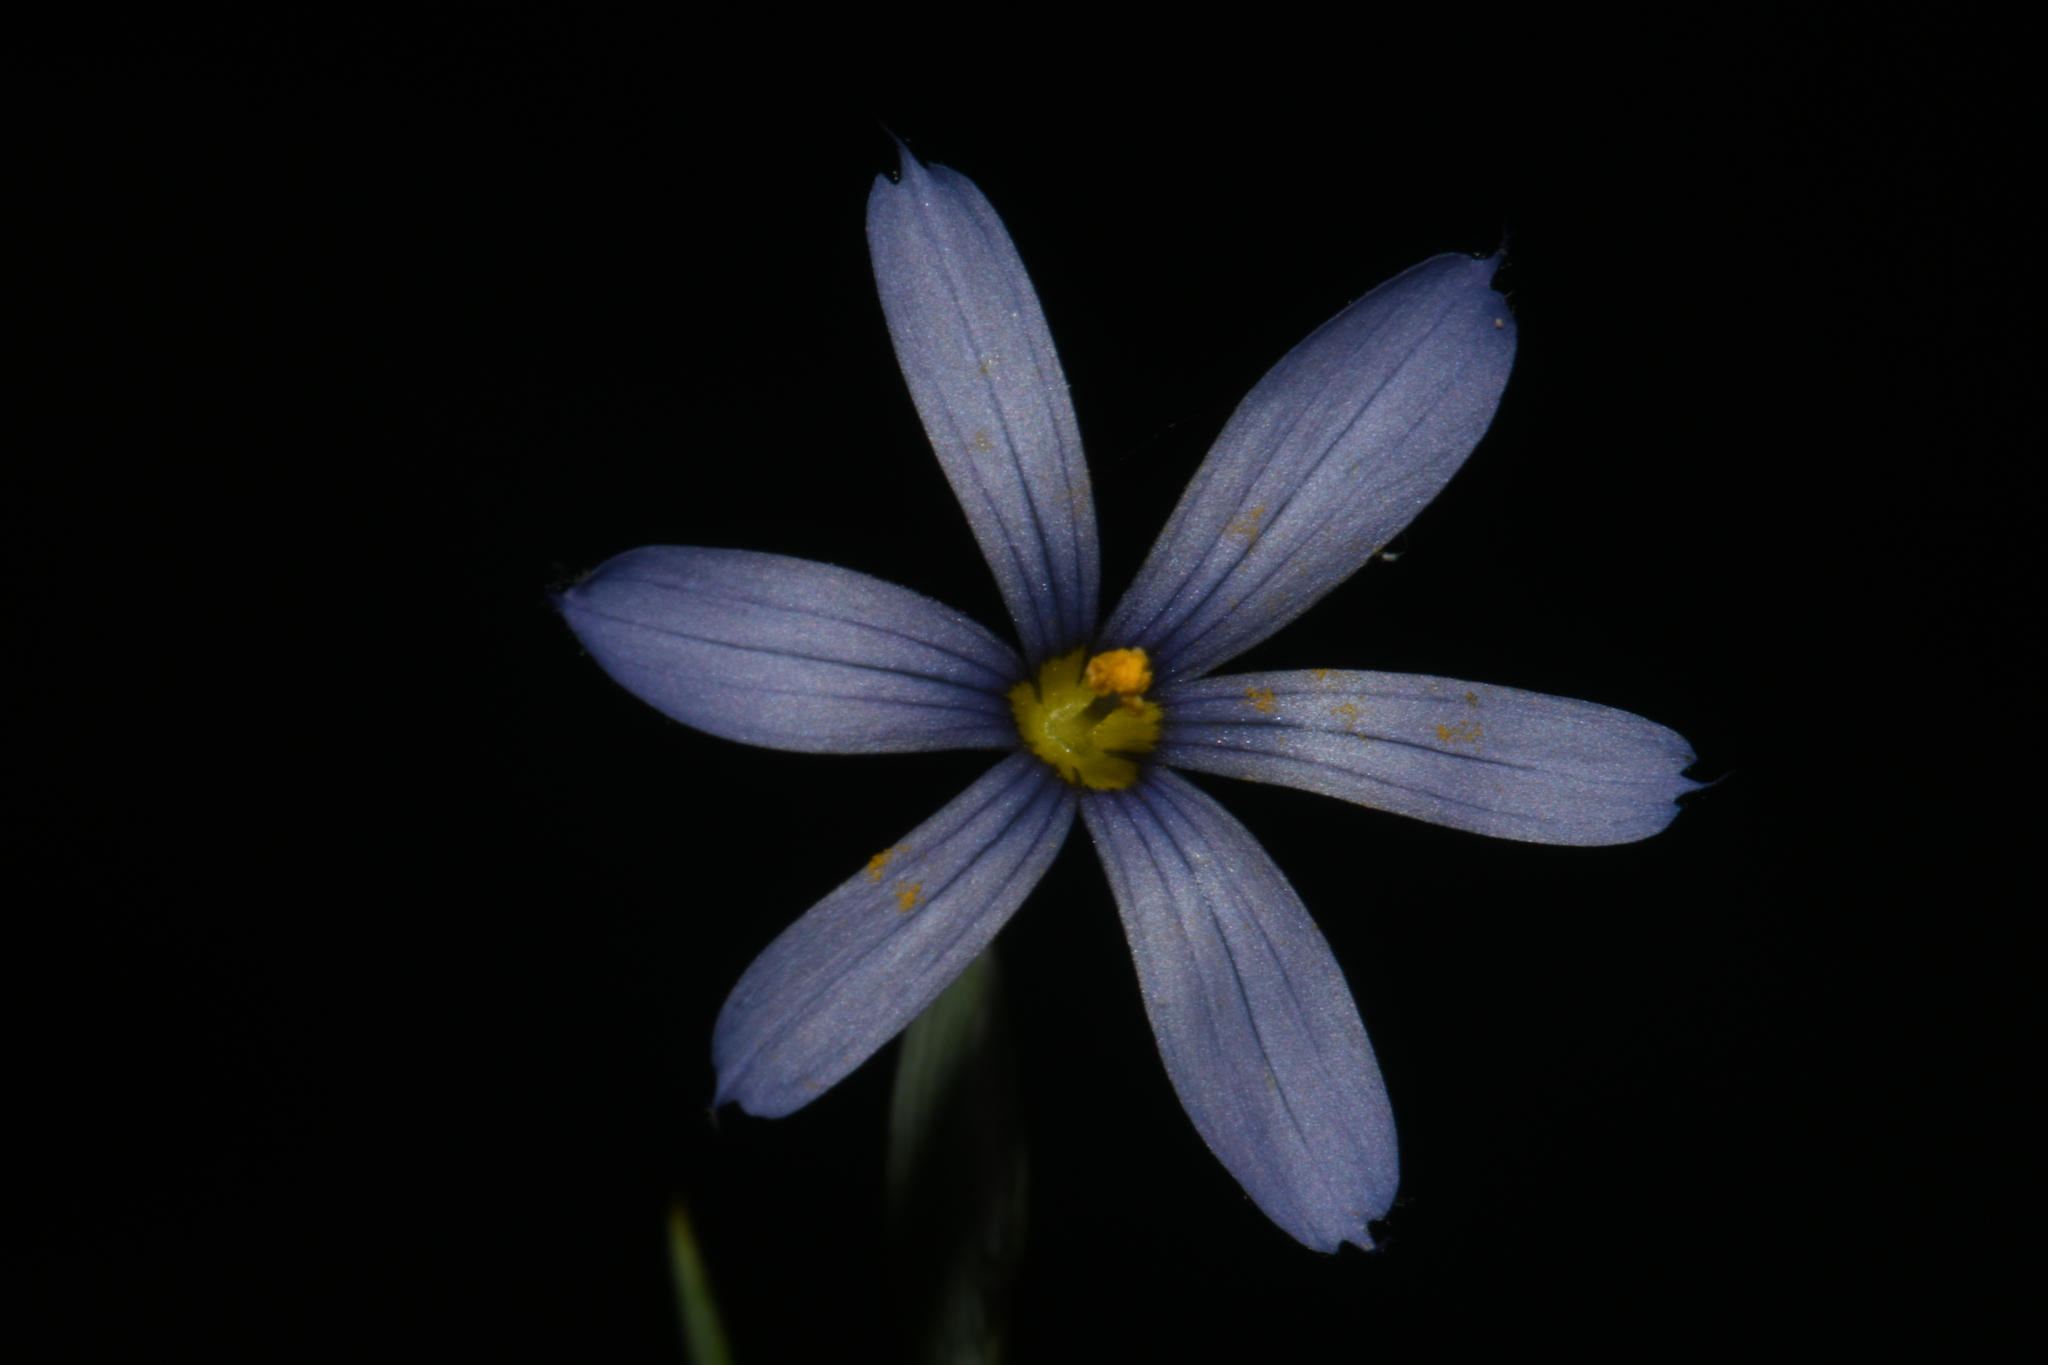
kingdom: Plantae
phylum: Tracheophyta
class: Liliopsida
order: Asparagales
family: Iridaceae
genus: Sisyrinchium
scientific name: Sisyrinchium atlanticum
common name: Eastern blue-eyed-grass
